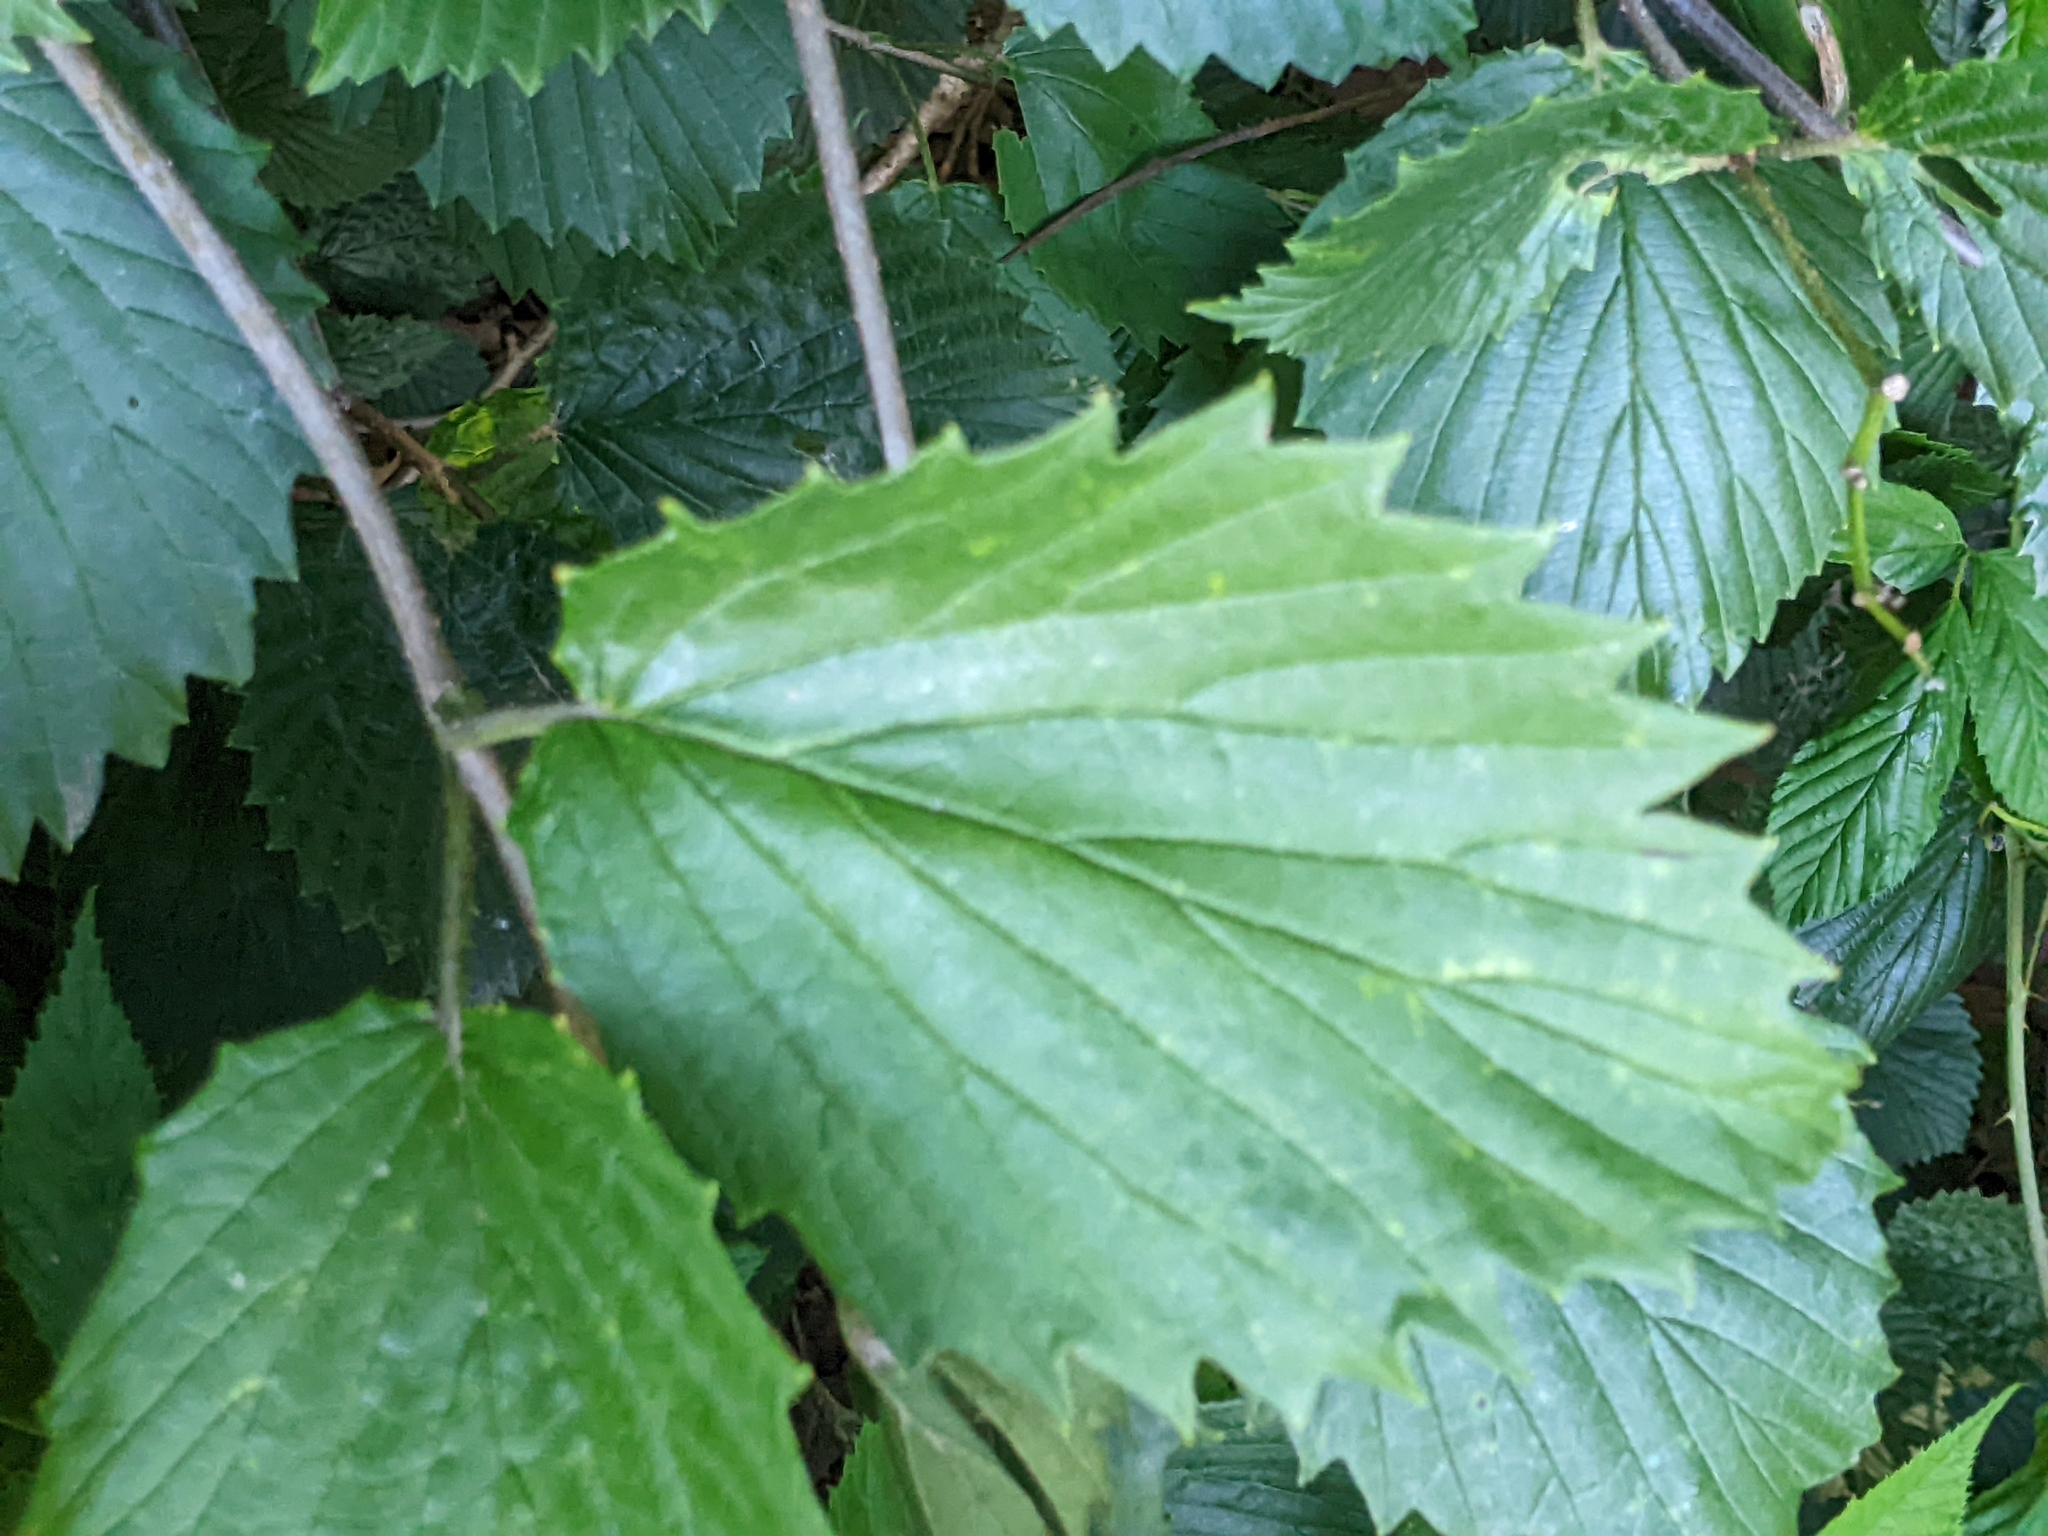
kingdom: Plantae
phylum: Tracheophyta
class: Magnoliopsida
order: Dipsacales
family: Viburnaceae
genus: Viburnum
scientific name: Viburnum dentatum
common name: Arrow-wood
